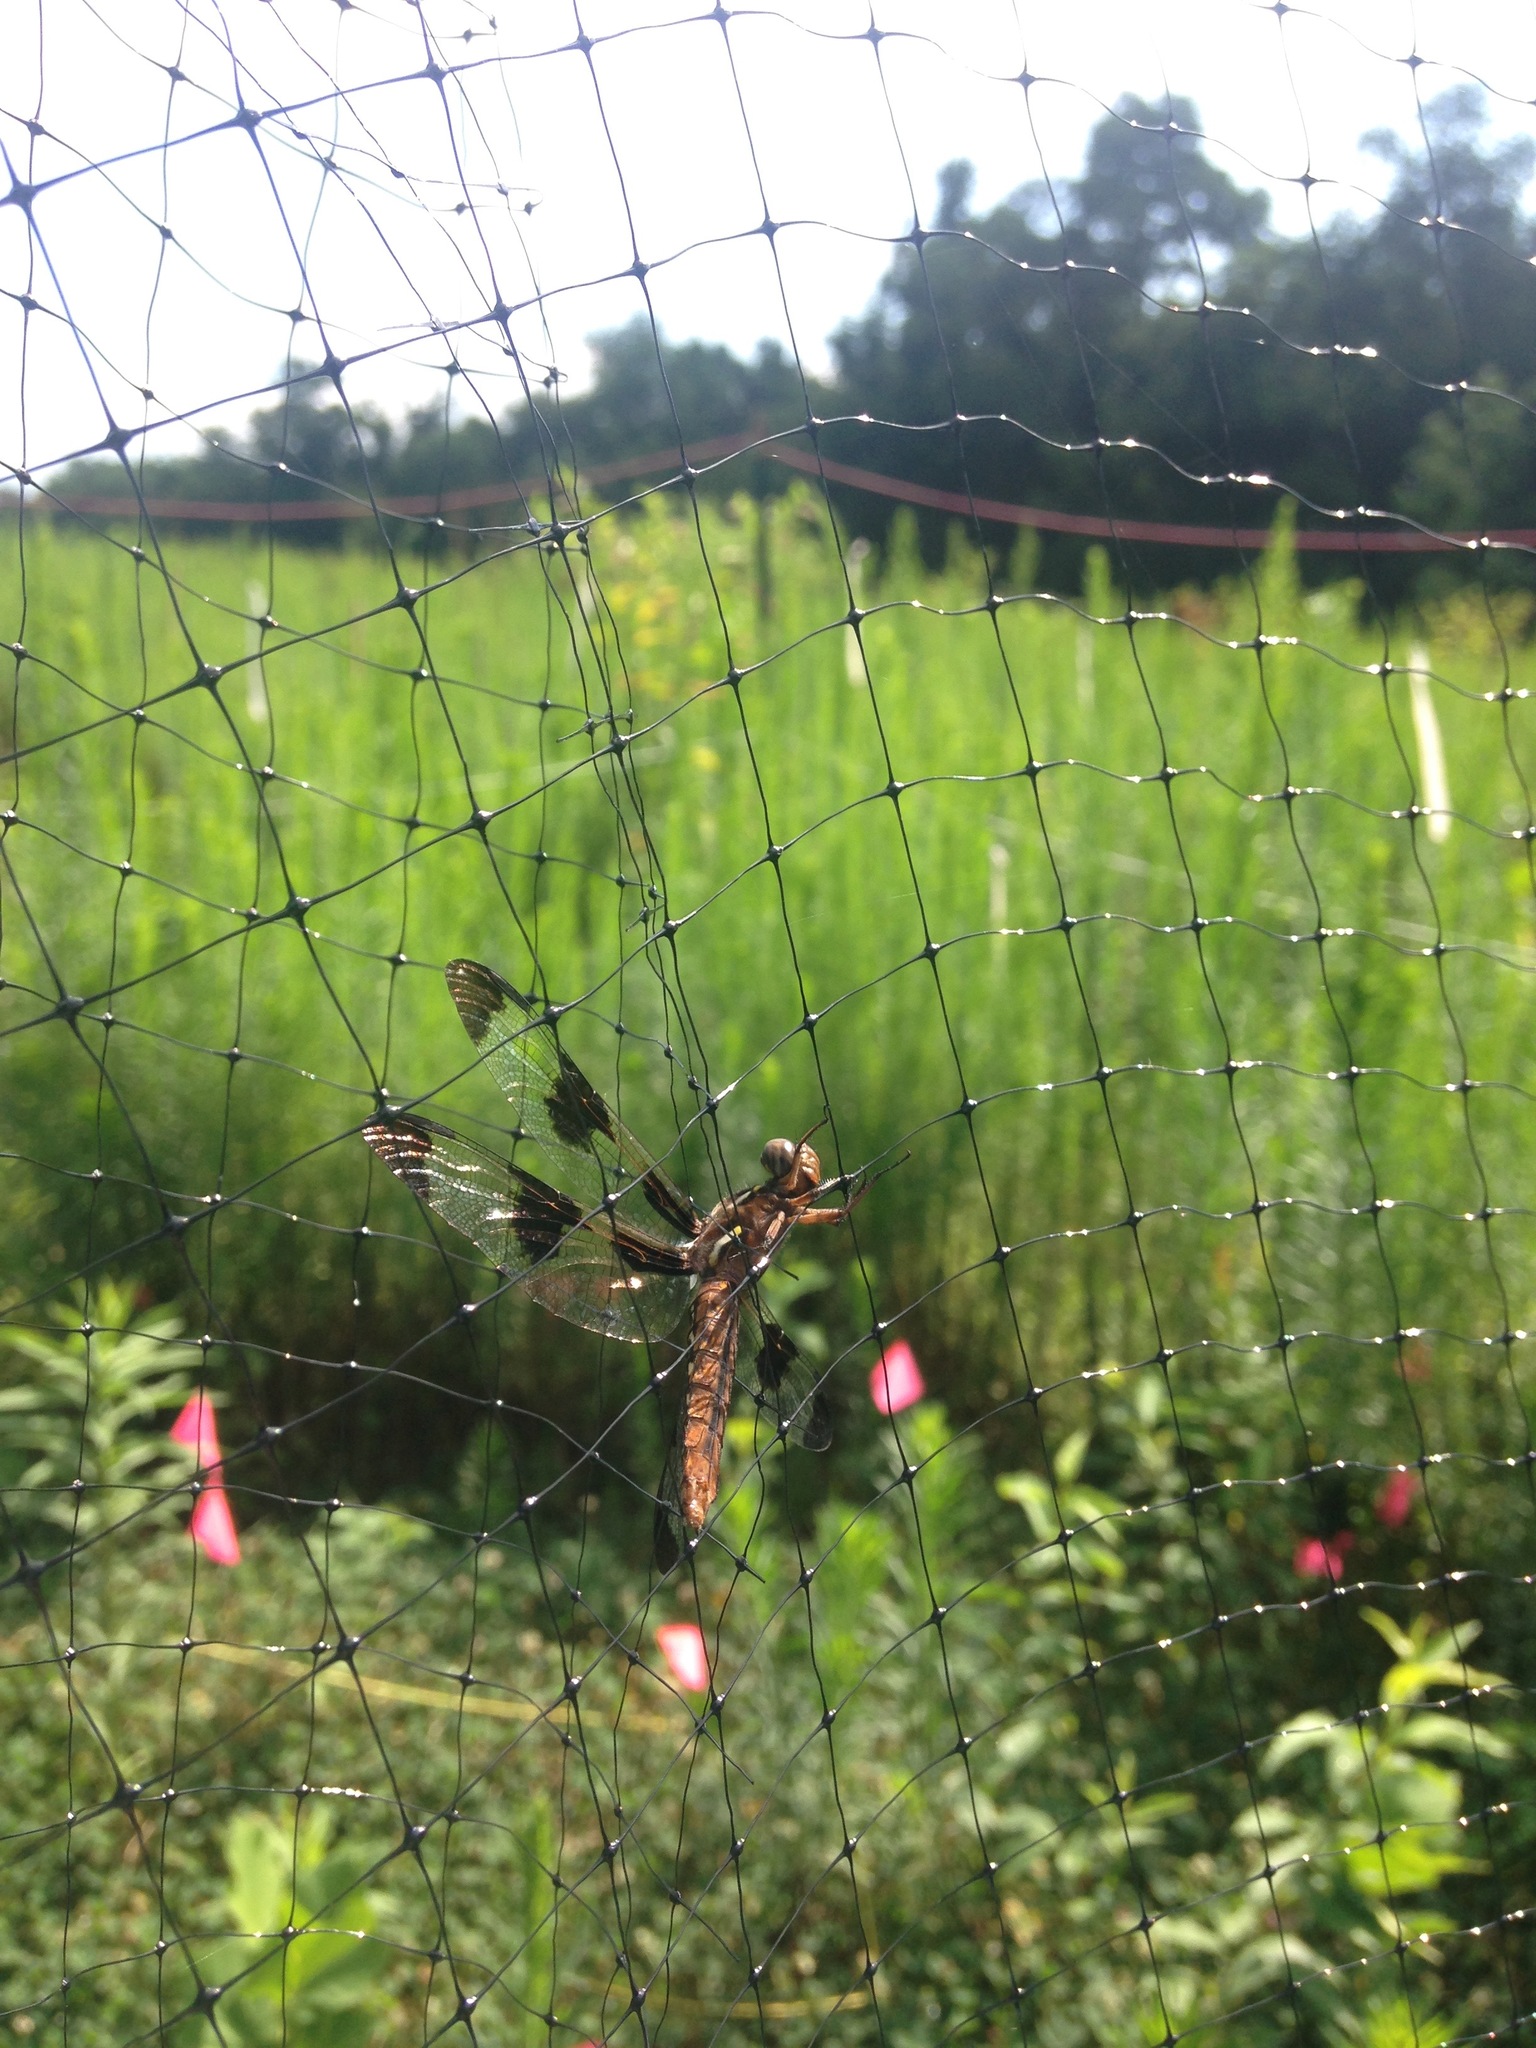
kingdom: Animalia
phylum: Arthropoda
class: Insecta
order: Odonata
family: Libellulidae
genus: Plathemis
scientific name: Plathemis lydia
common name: Common whitetail
